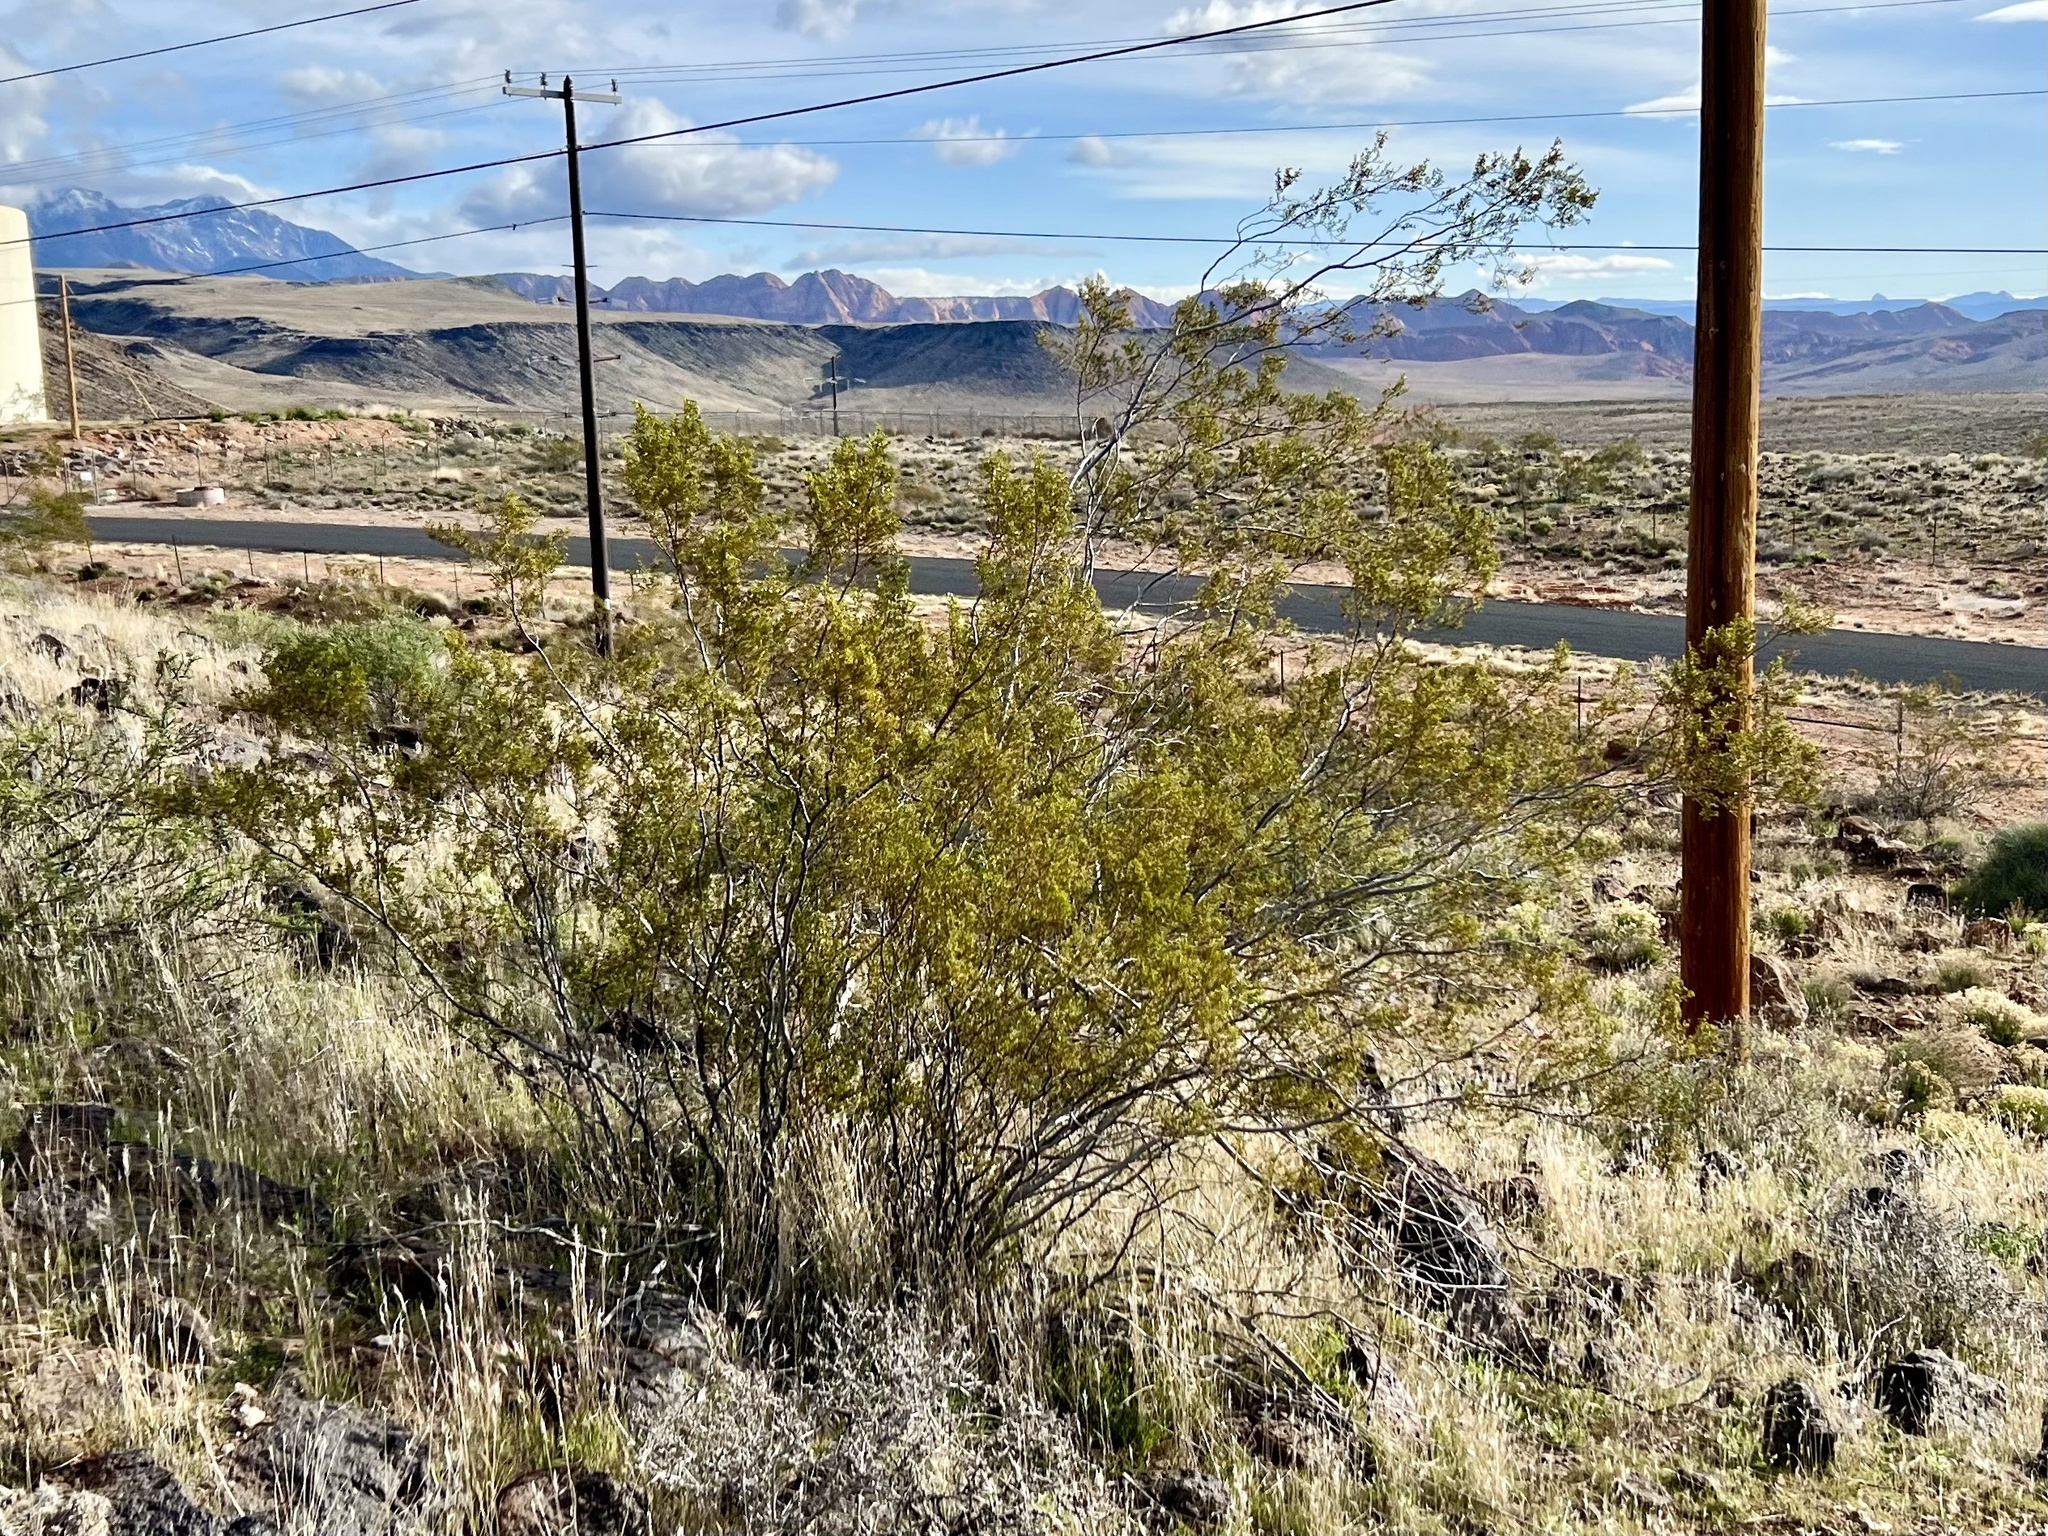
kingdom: Plantae
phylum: Tracheophyta
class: Magnoliopsida
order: Zygophyllales
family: Zygophyllaceae
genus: Larrea
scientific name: Larrea tridentata
